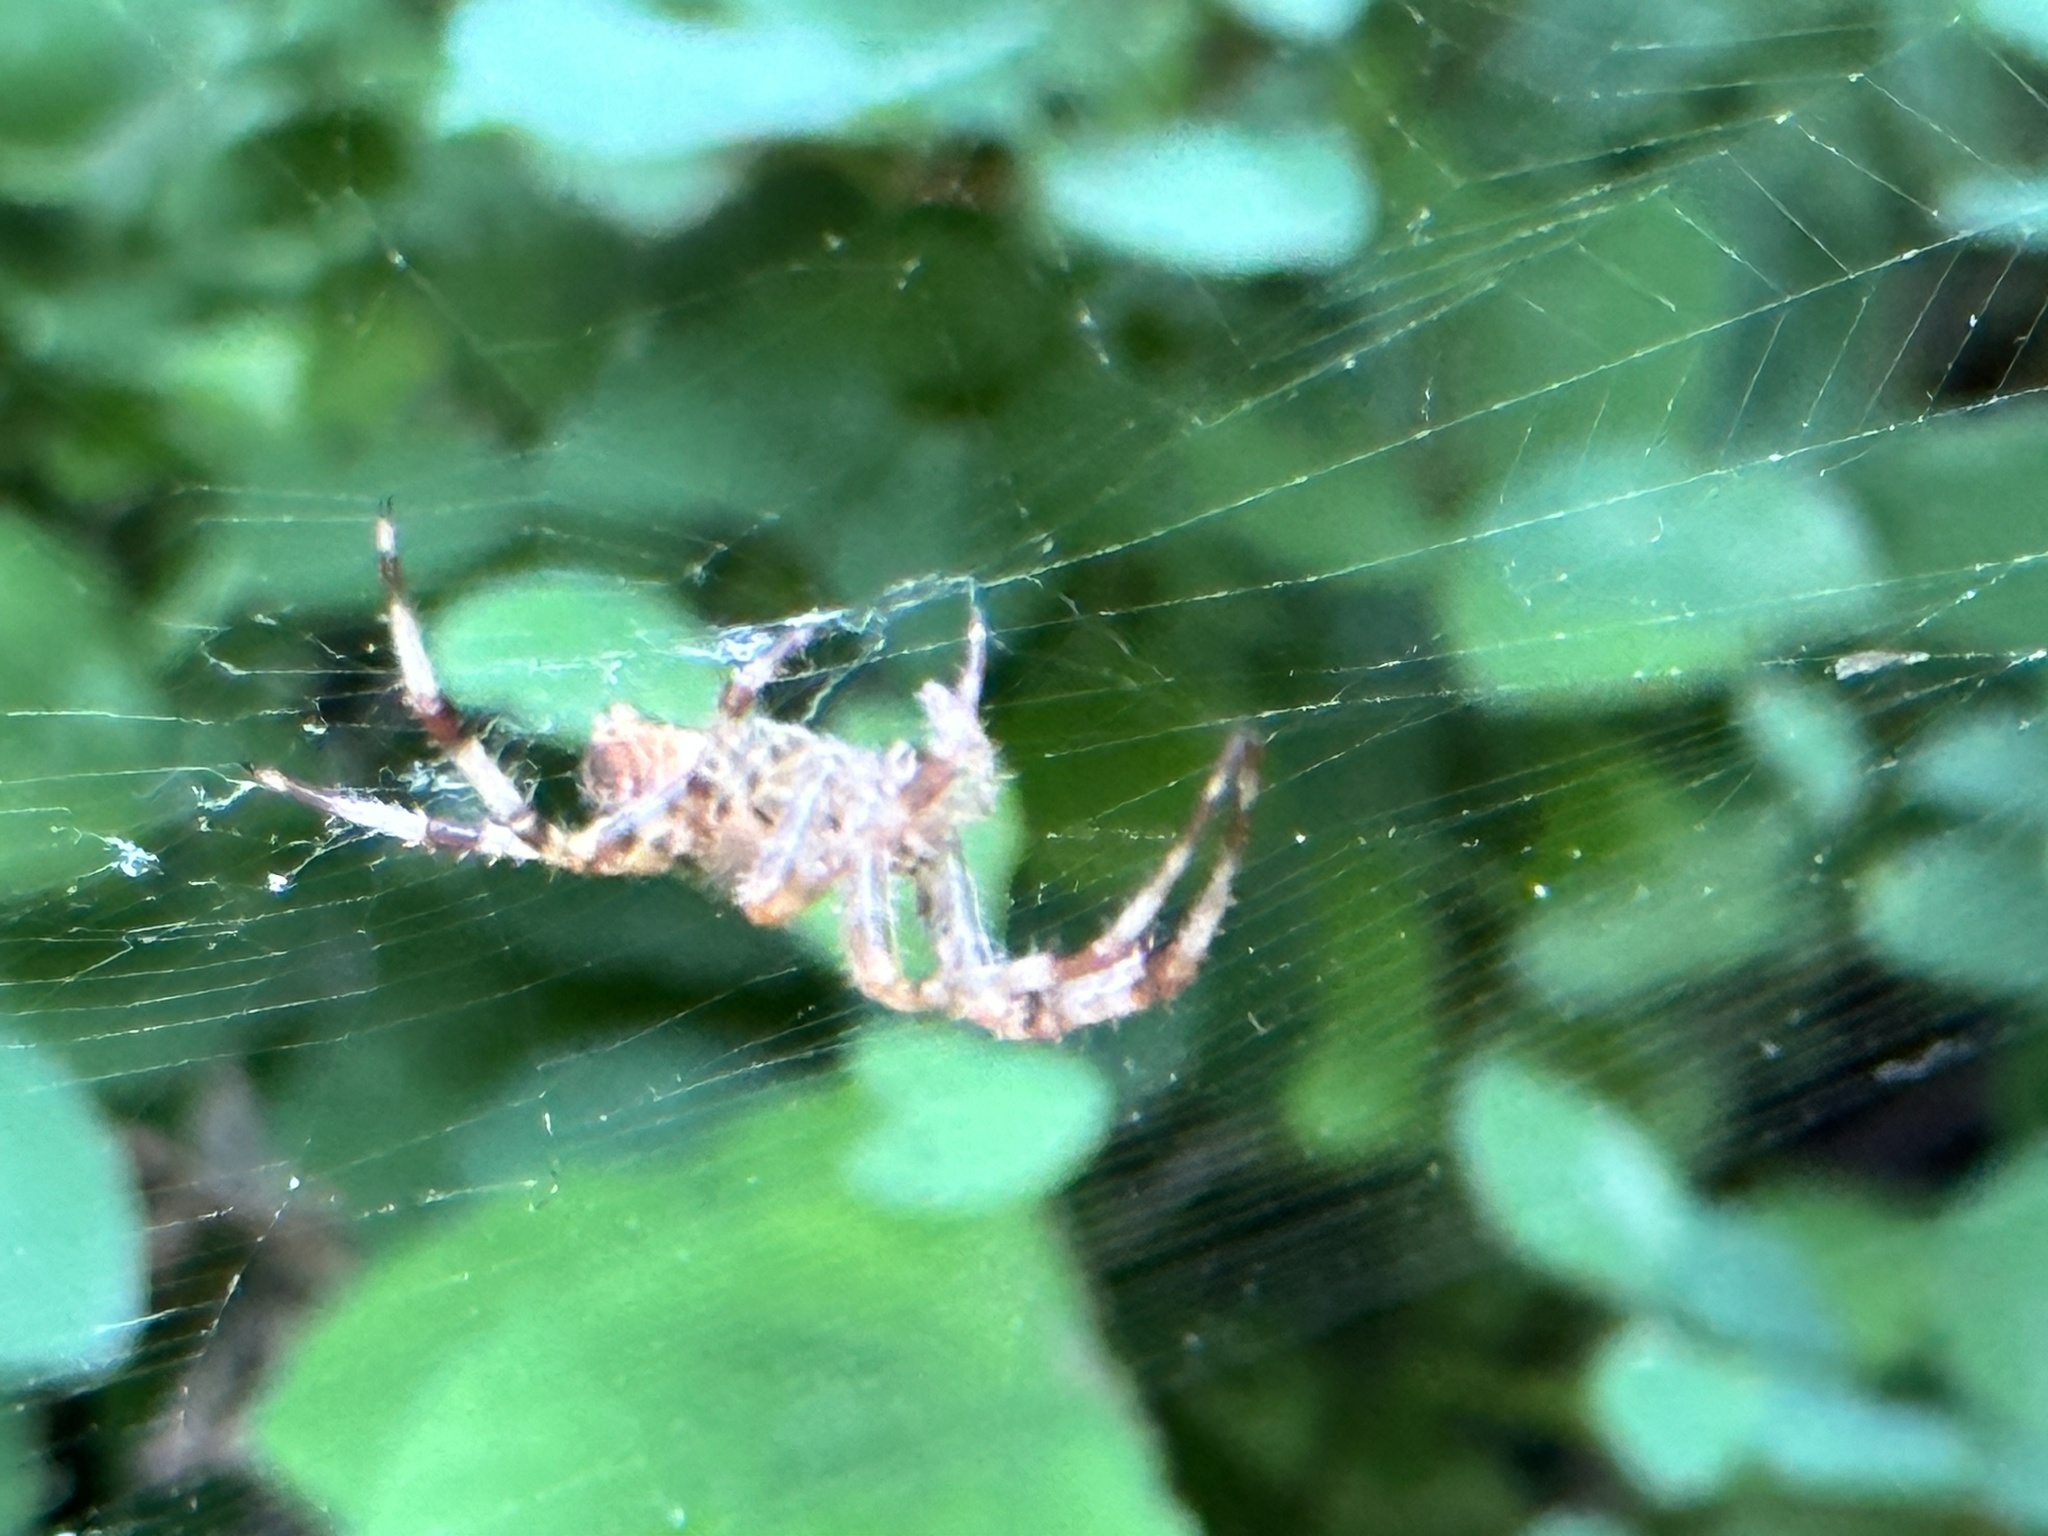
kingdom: Animalia
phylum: Arthropoda
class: Arachnida
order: Araneae
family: Araneidae
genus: Araneus
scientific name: Araneus diadematus
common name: Cross orbweaver
